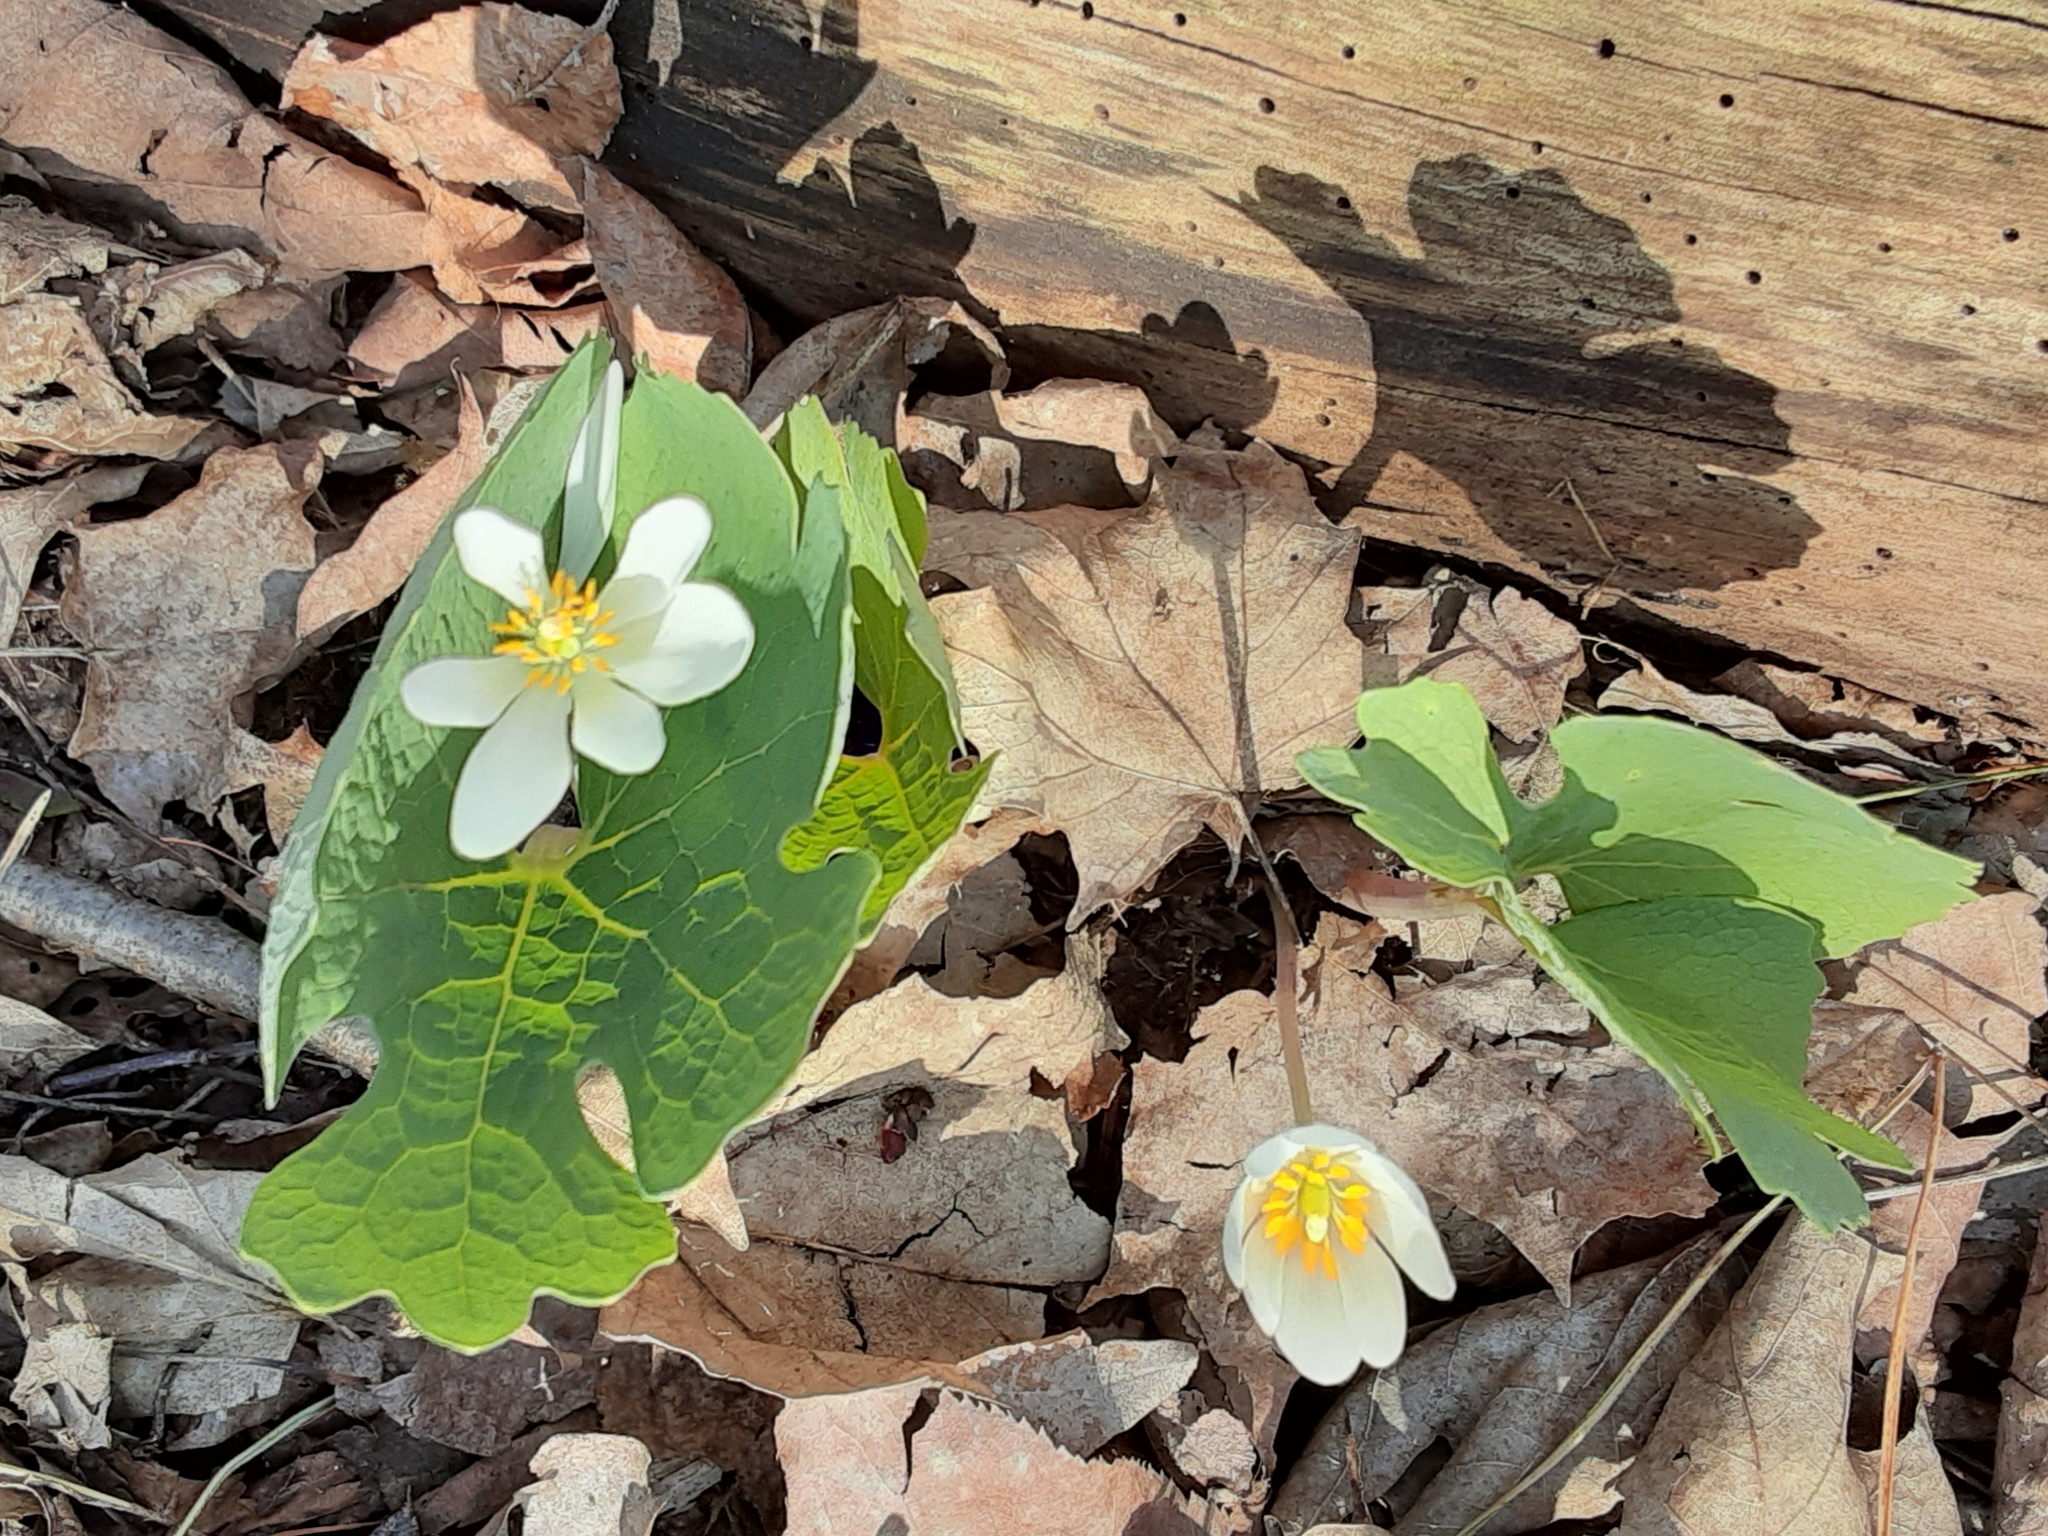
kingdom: Plantae
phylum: Tracheophyta
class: Magnoliopsida
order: Ranunculales
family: Papaveraceae
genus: Sanguinaria
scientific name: Sanguinaria canadensis
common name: Bloodroot
